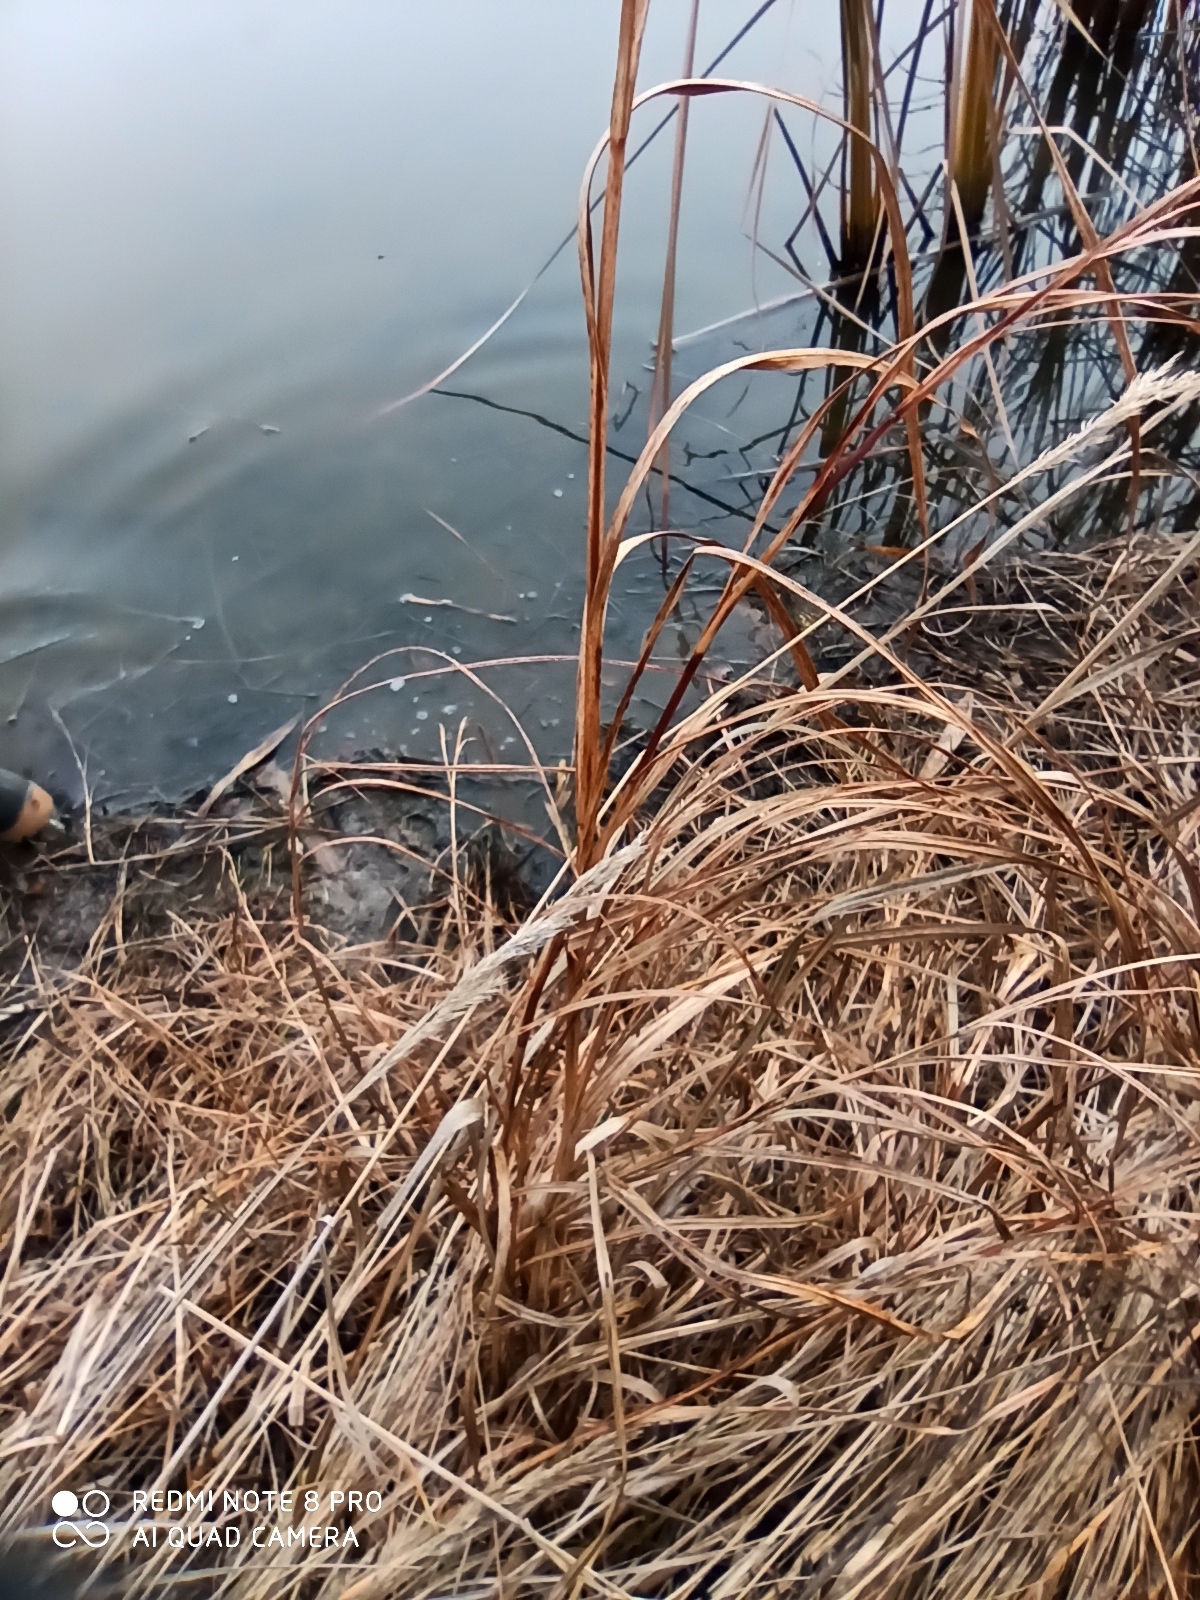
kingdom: Plantae
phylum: Tracheophyta
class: Liliopsida
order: Poales
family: Cyperaceae
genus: Bolboschoenus
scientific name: Bolboschoenus maritimus
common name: Sea club-rush
